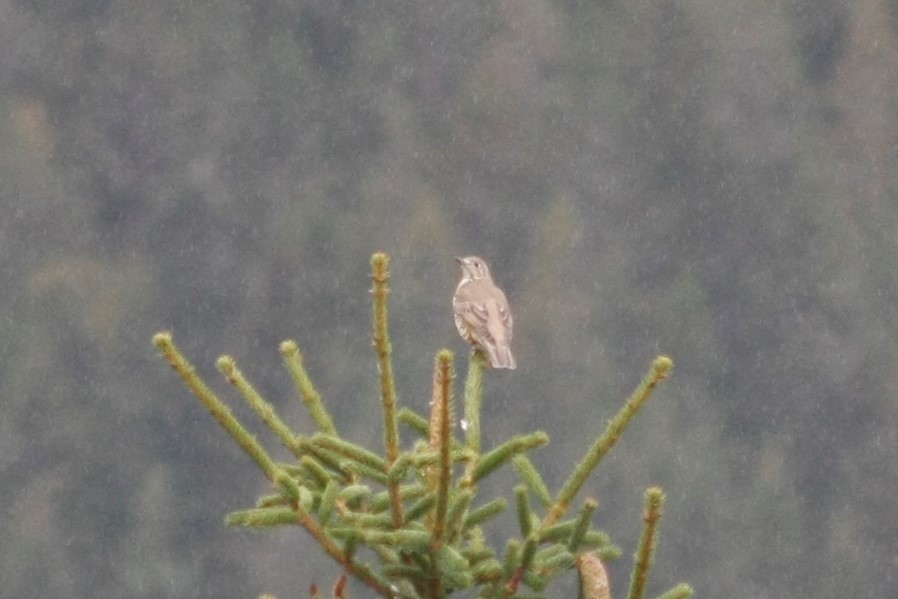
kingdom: Animalia
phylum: Chordata
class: Aves
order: Passeriformes
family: Turdidae
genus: Turdus
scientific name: Turdus viscivorus
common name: Mistle thrush
